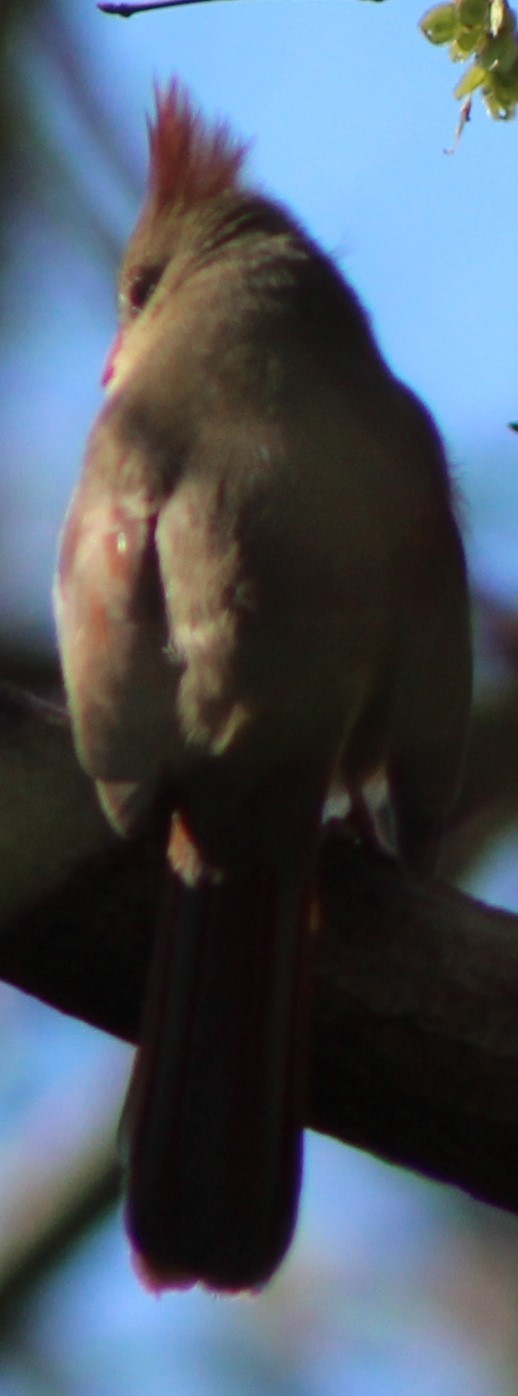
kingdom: Animalia
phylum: Chordata
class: Aves
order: Passeriformes
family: Cardinalidae
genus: Cardinalis
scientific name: Cardinalis cardinalis
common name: Northern cardinal
